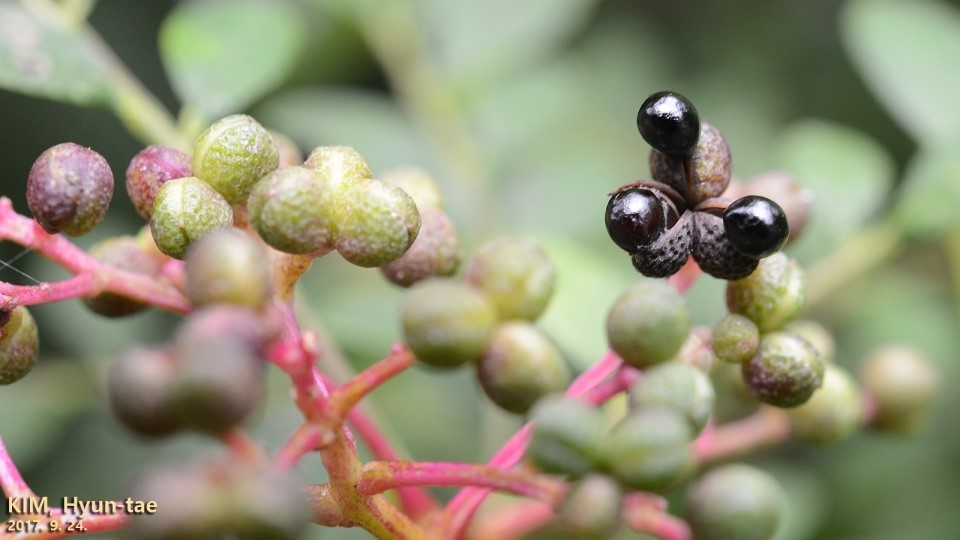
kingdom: Plantae
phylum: Tracheophyta
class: Magnoliopsida
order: Sapindales
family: Rutaceae
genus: Zanthoxylum
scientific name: Zanthoxylum schinifolium
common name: Sichuan-pepper
